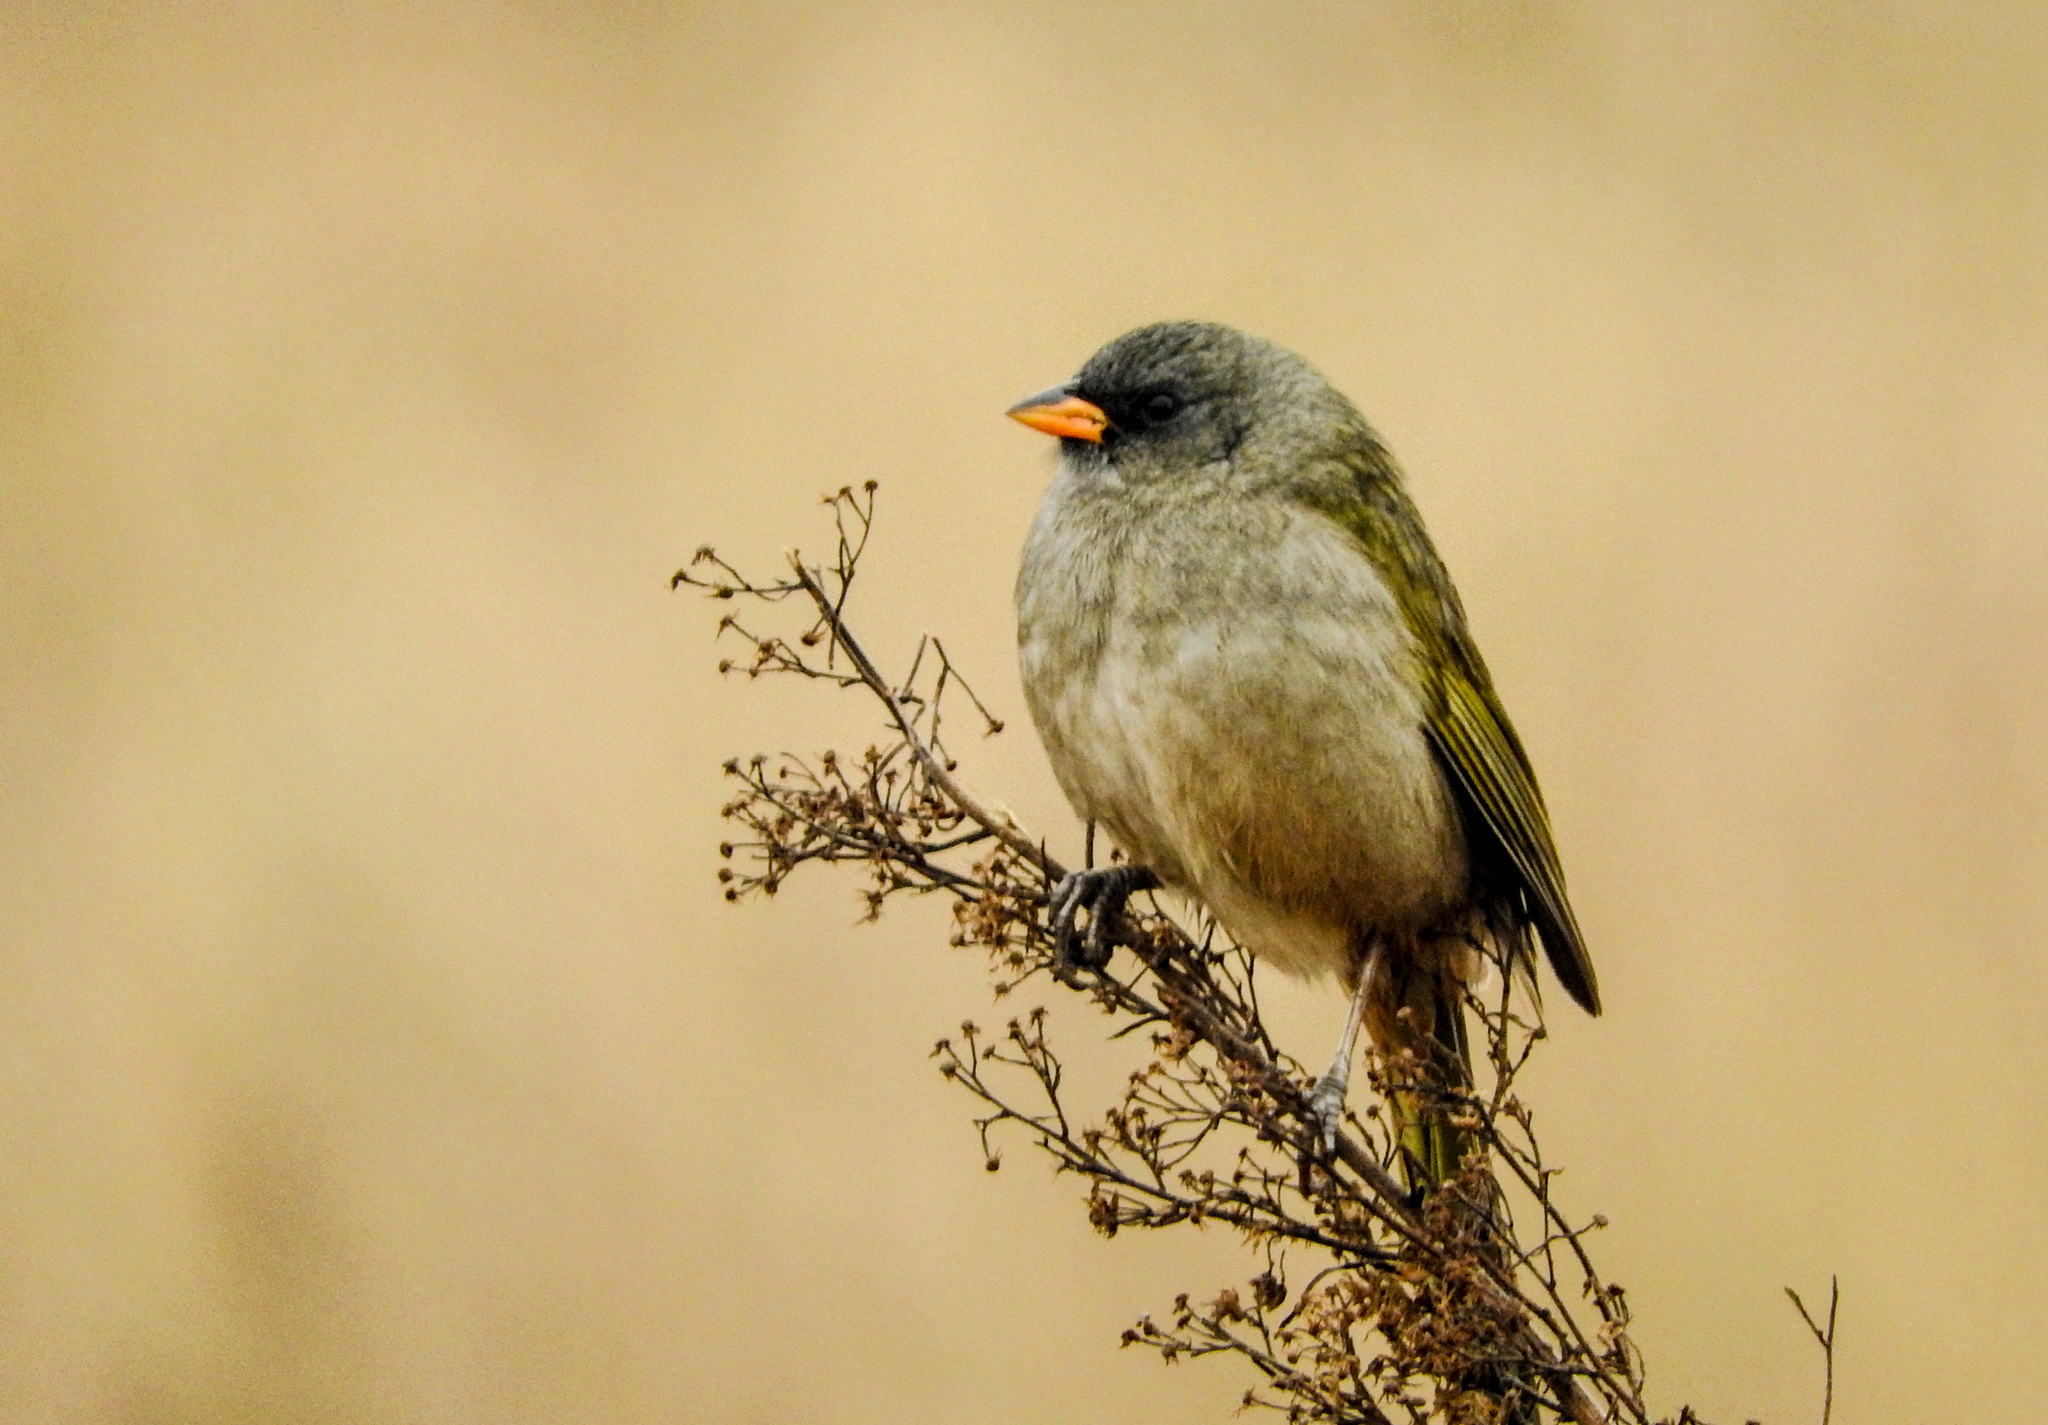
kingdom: Animalia
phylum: Chordata
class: Aves
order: Passeriformes
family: Thraupidae
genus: Embernagra
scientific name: Embernagra platensis
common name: Pampa finch
